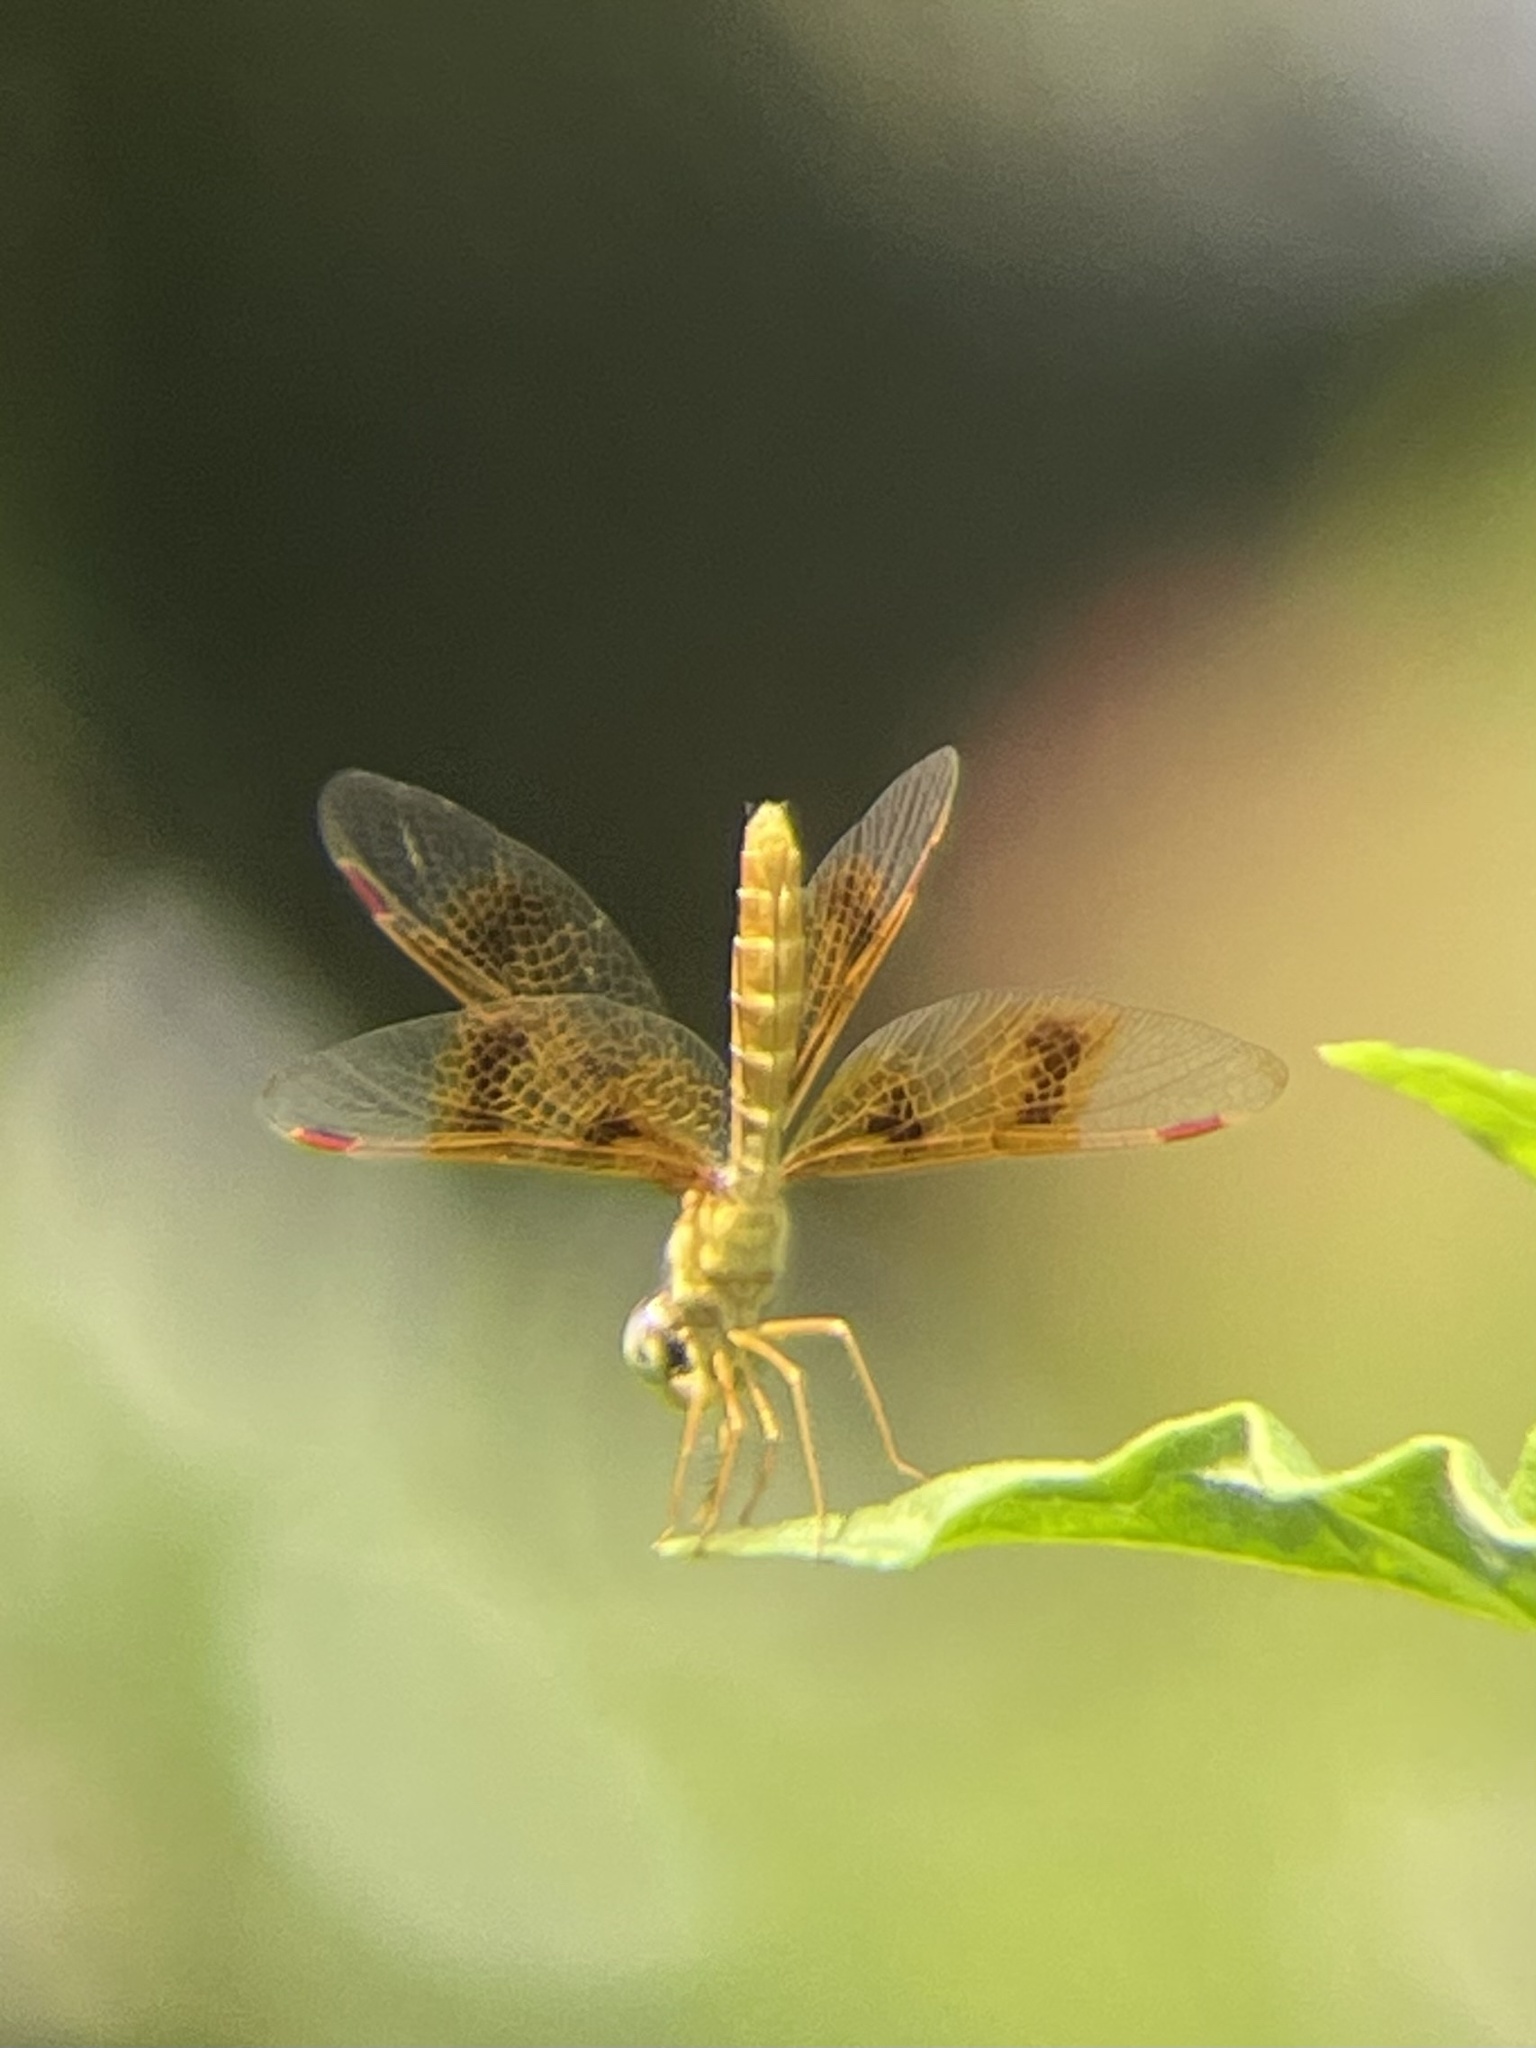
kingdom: Animalia
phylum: Arthropoda
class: Insecta
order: Odonata
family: Libellulidae
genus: Perithemis
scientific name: Perithemis tenera
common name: Eastern amberwing
